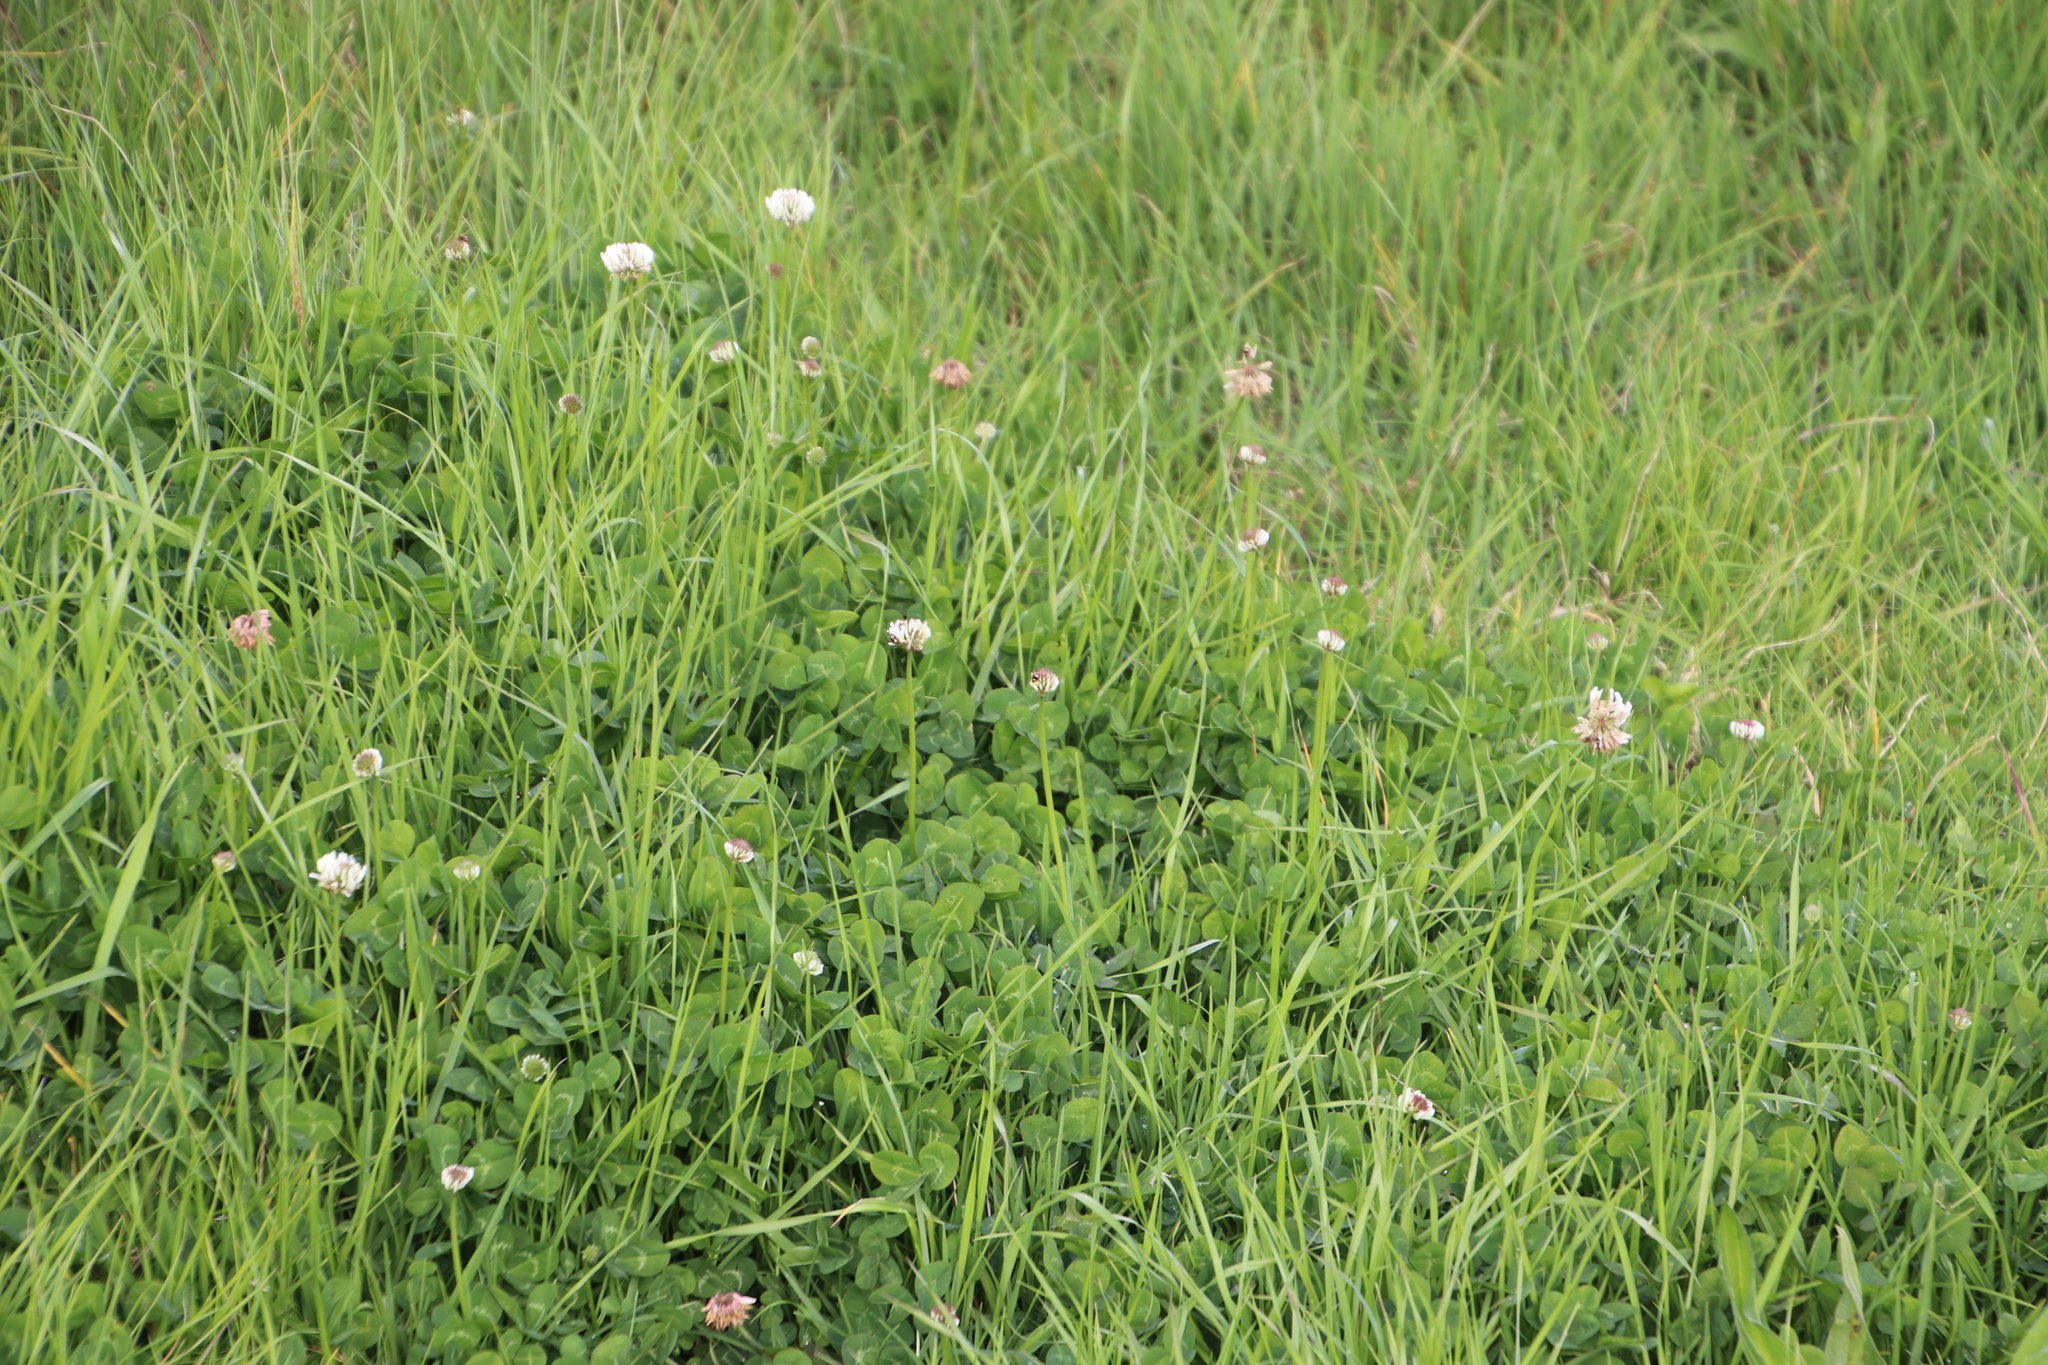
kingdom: Plantae
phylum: Tracheophyta
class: Magnoliopsida
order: Fabales
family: Fabaceae
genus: Trifolium
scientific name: Trifolium repens
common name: White clover
